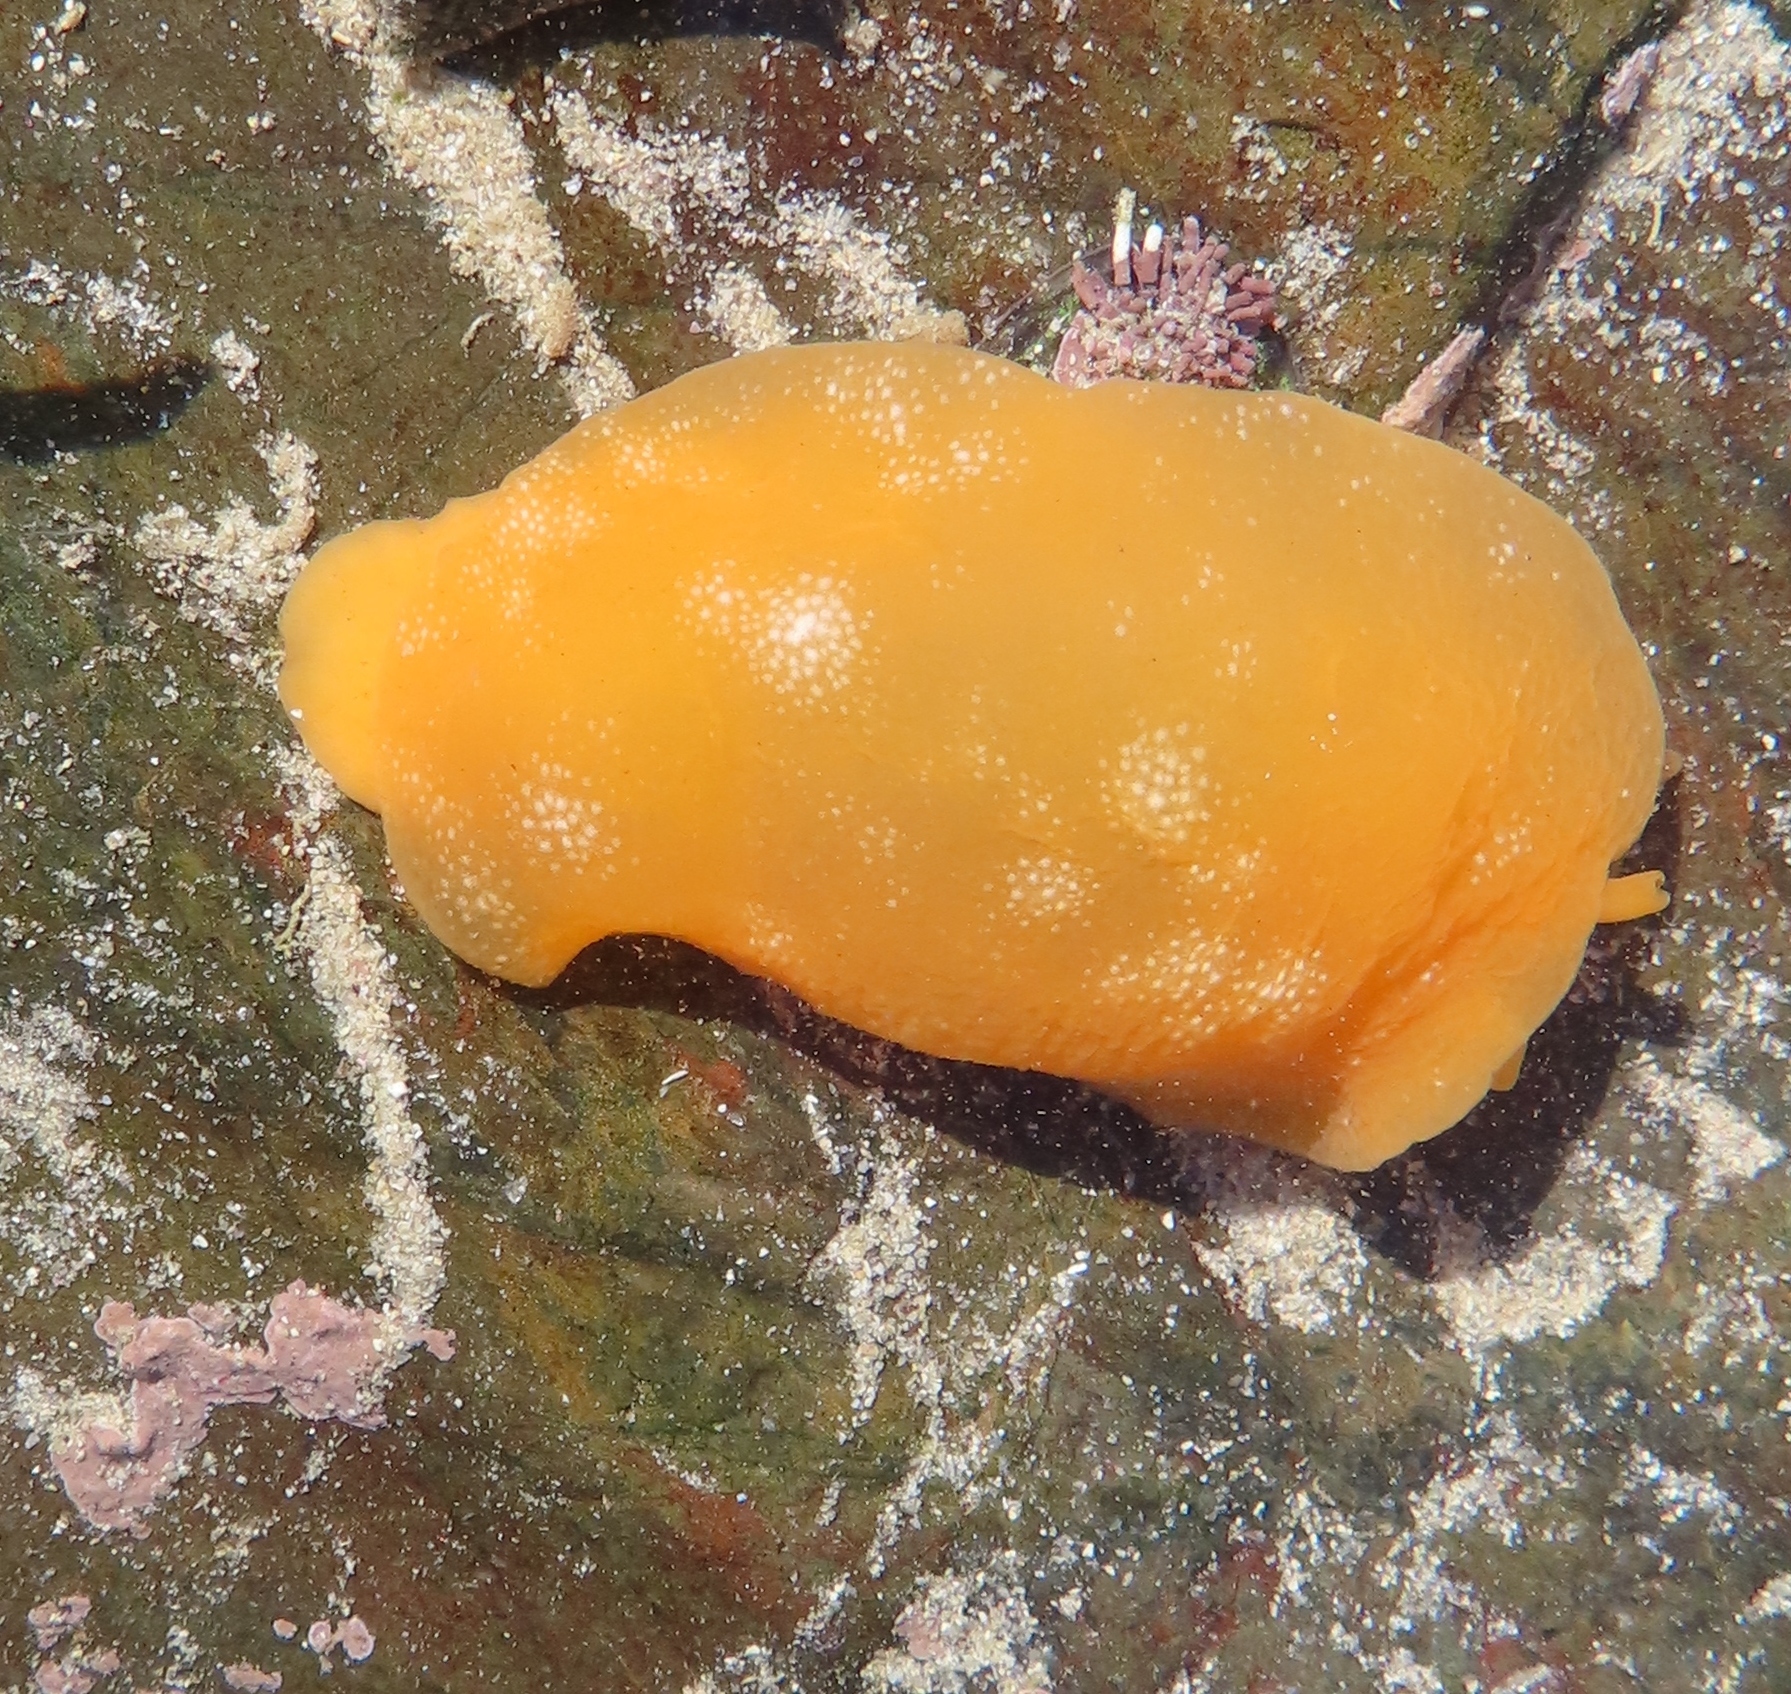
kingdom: Animalia
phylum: Mollusca
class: Gastropoda
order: Pleurobranchida
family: Pleurobranchidae
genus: Berthellina
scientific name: Berthellina granulata
